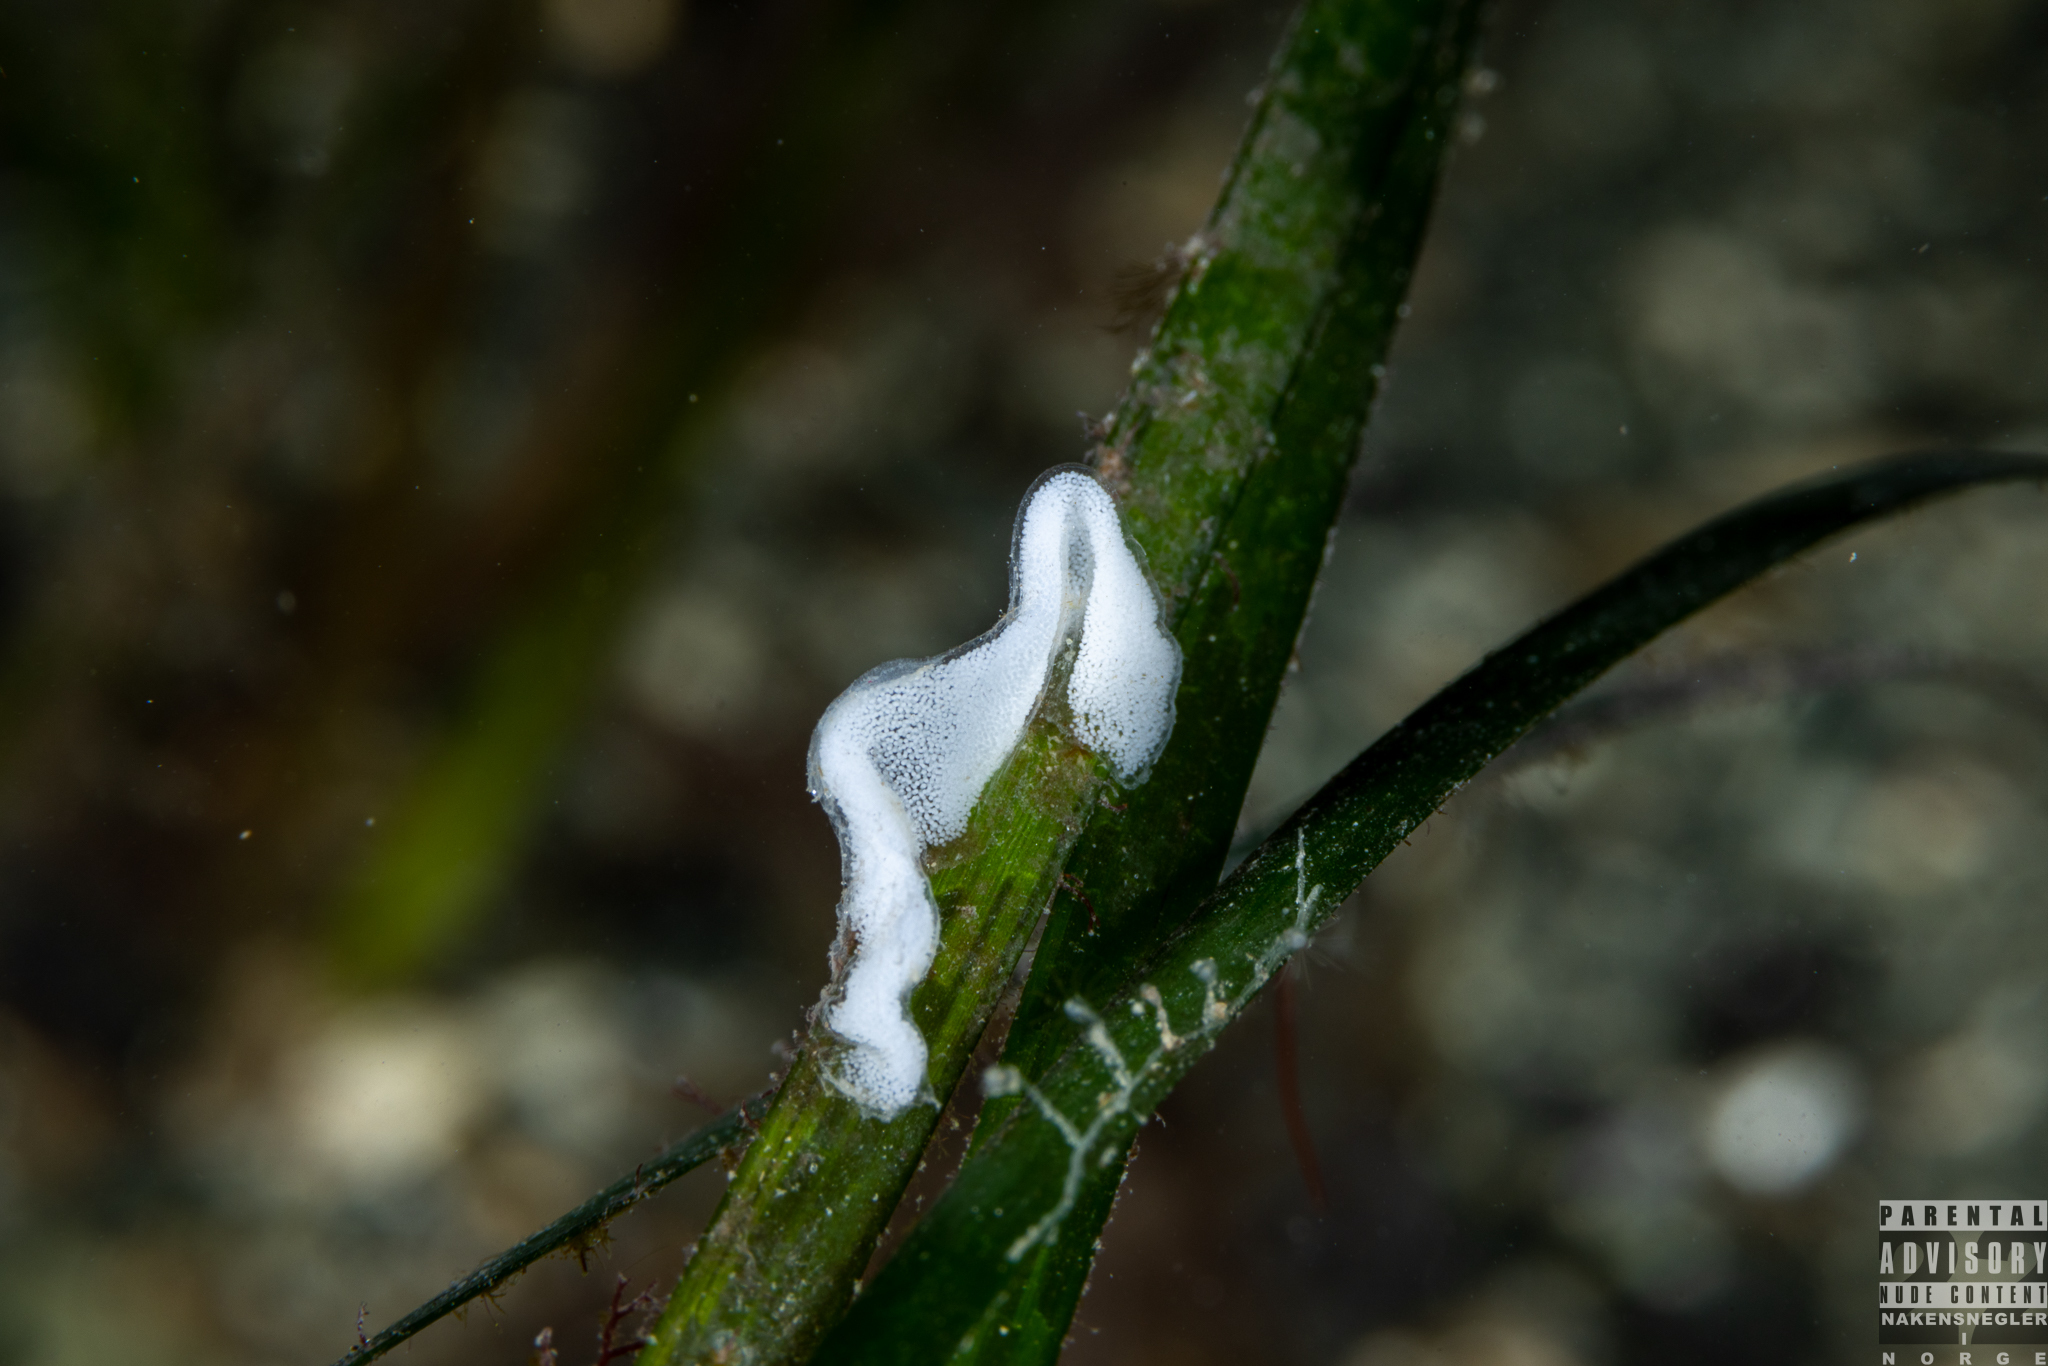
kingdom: Animalia
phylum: Mollusca
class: Gastropoda
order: Nudibranchia
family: Polyceridae
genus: Polycera
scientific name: Polycera quadrilineata
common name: Four-striped polycera
